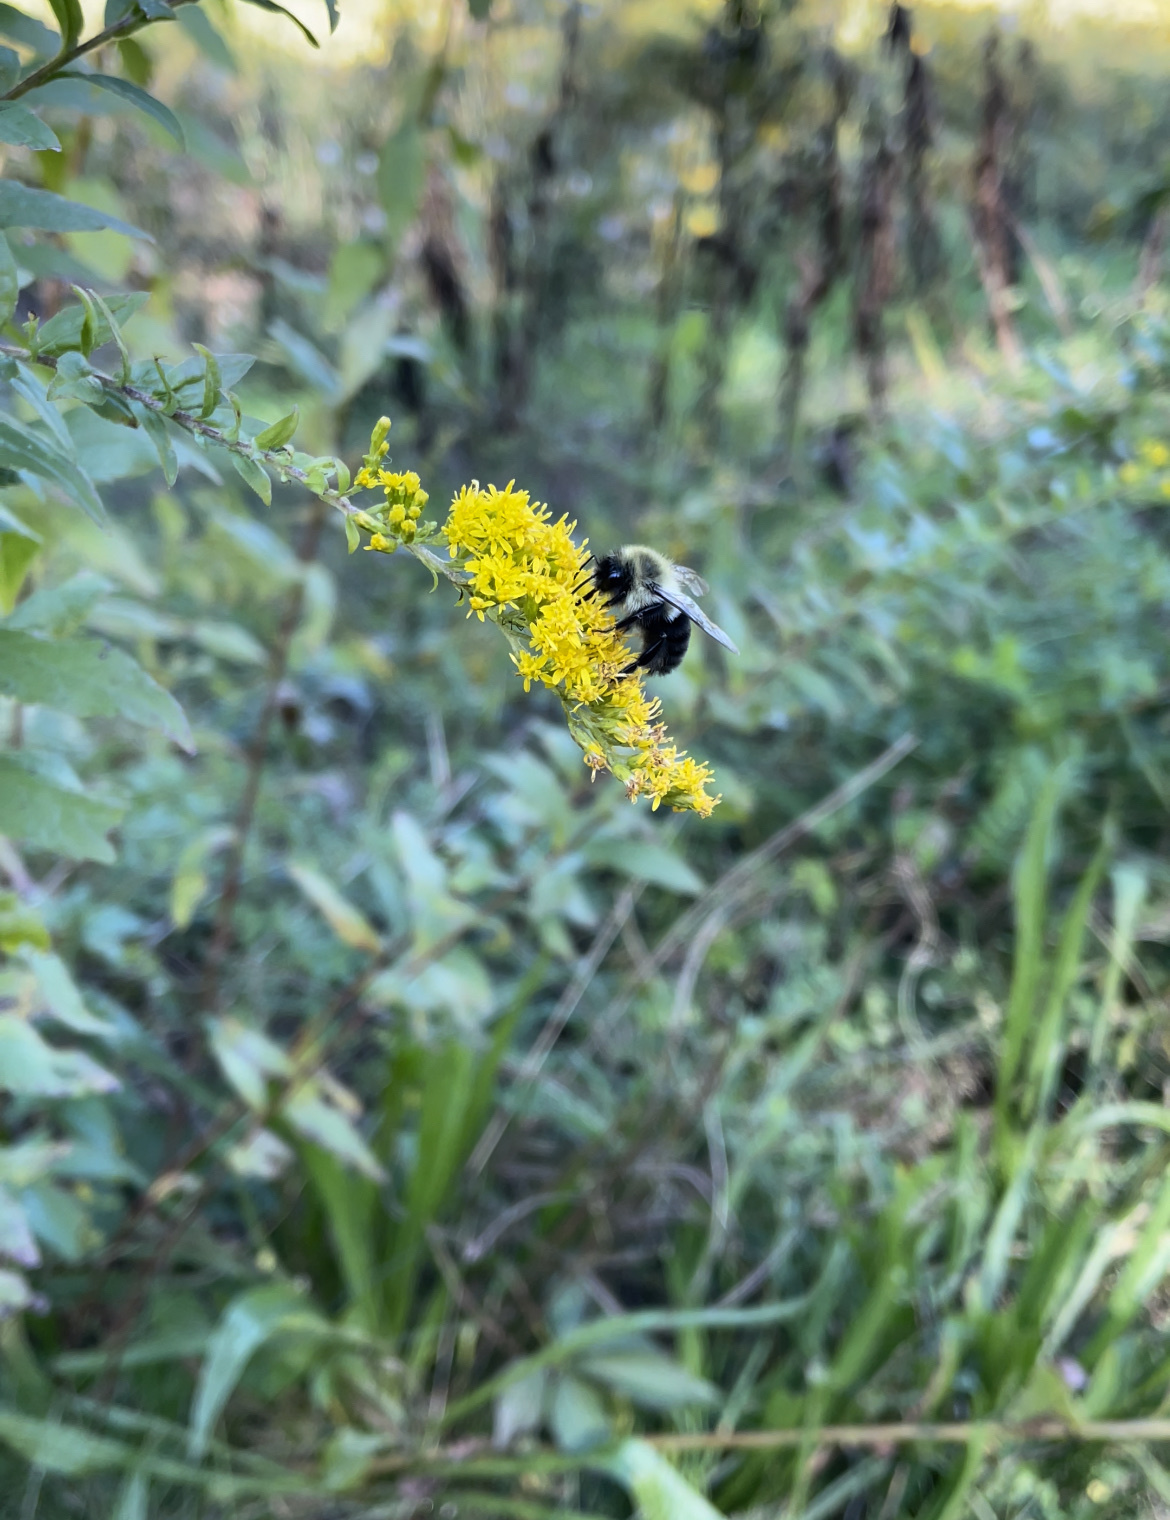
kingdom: Animalia
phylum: Arthropoda
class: Insecta
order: Hymenoptera
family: Apidae
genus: Bombus
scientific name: Bombus impatiens
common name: Common eastern bumble bee
